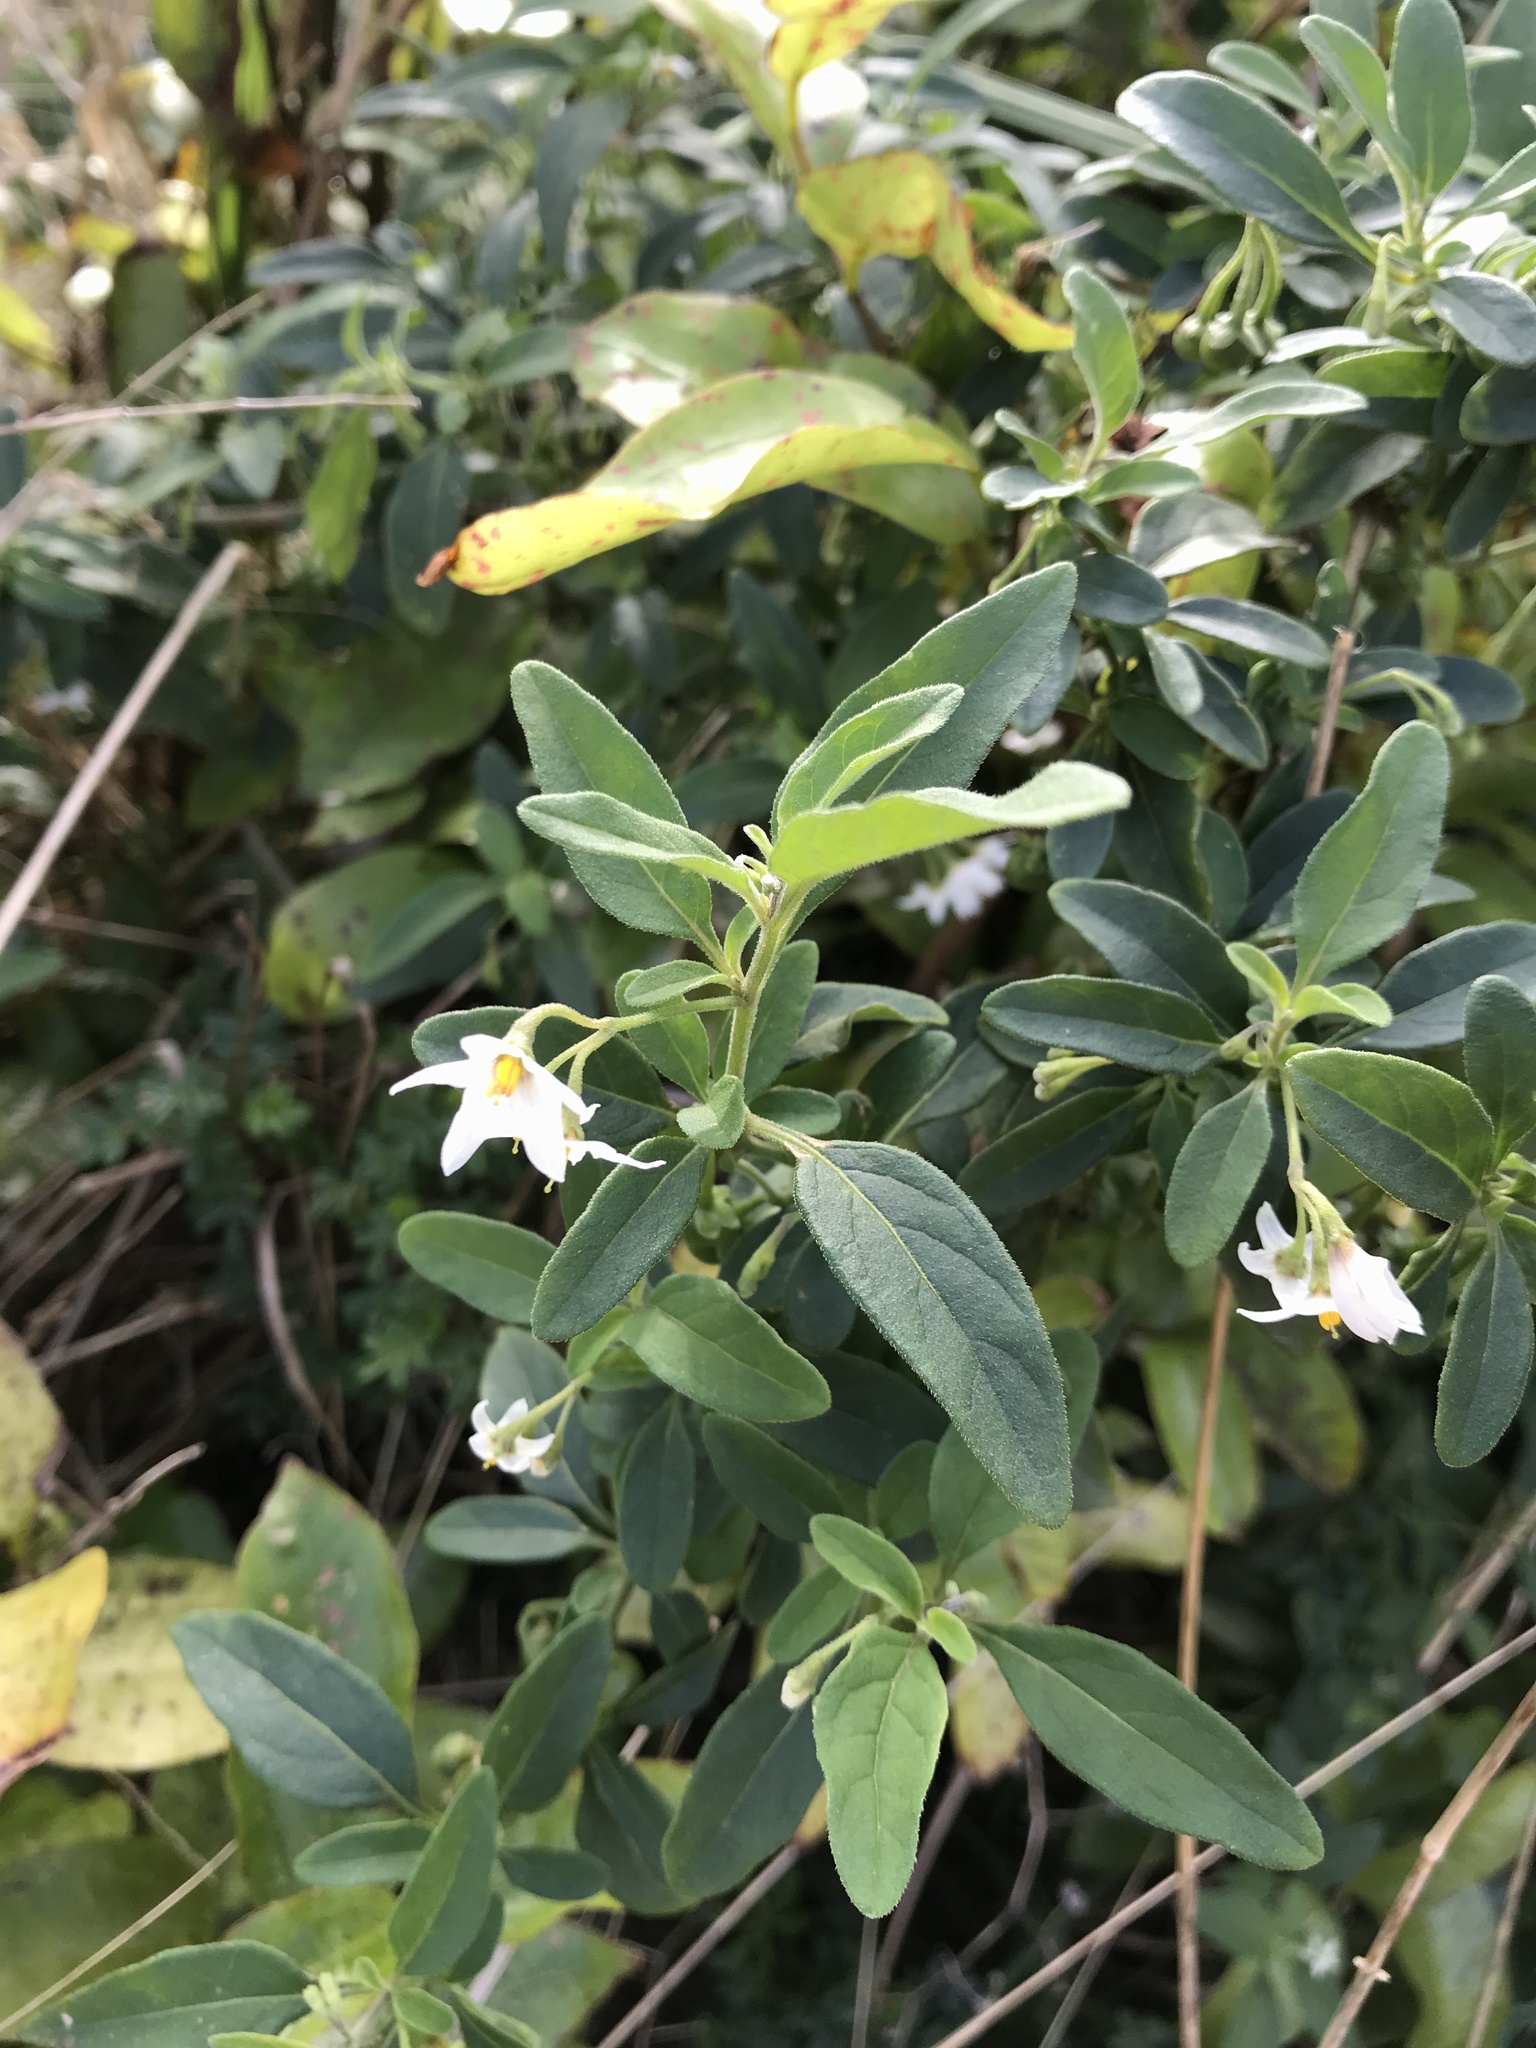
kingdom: Plantae
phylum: Tracheophyta
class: Magnoliopsida
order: Solanales
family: Solanaceae
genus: Solanum
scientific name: Solanum chenopodioides
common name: Tall nightshade
